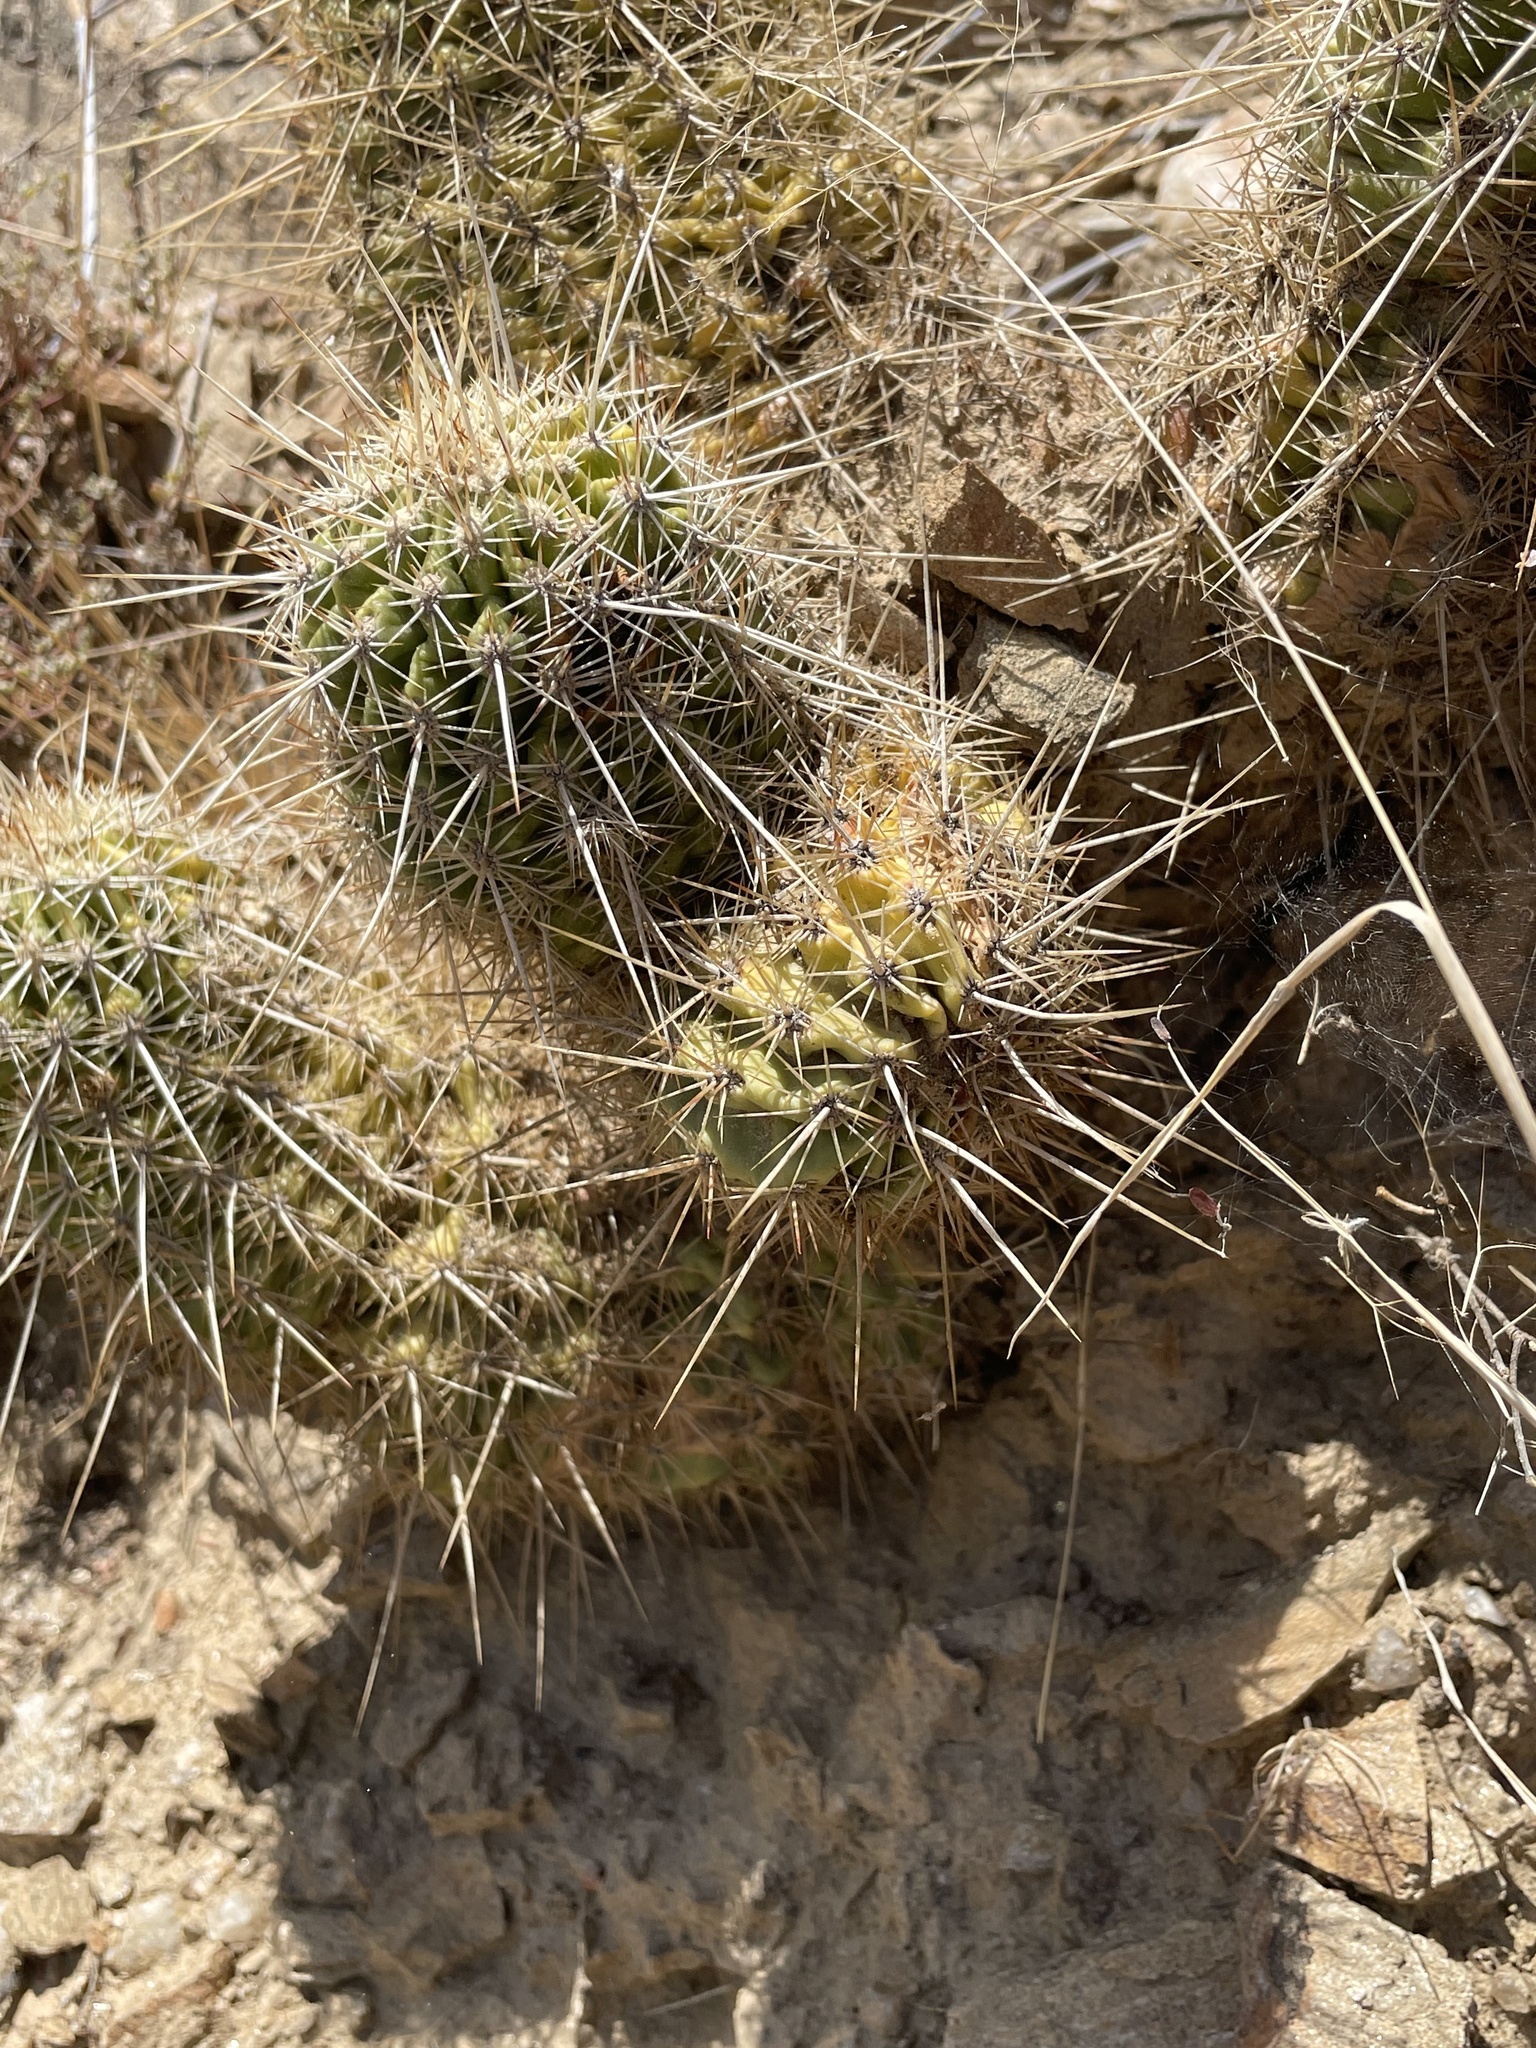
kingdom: Plantae
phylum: Tracheophyta
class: Magnoliopsida
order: Caryophyllales
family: Cactaceae
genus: Echinocereus
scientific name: Echinocereus bonkerae
